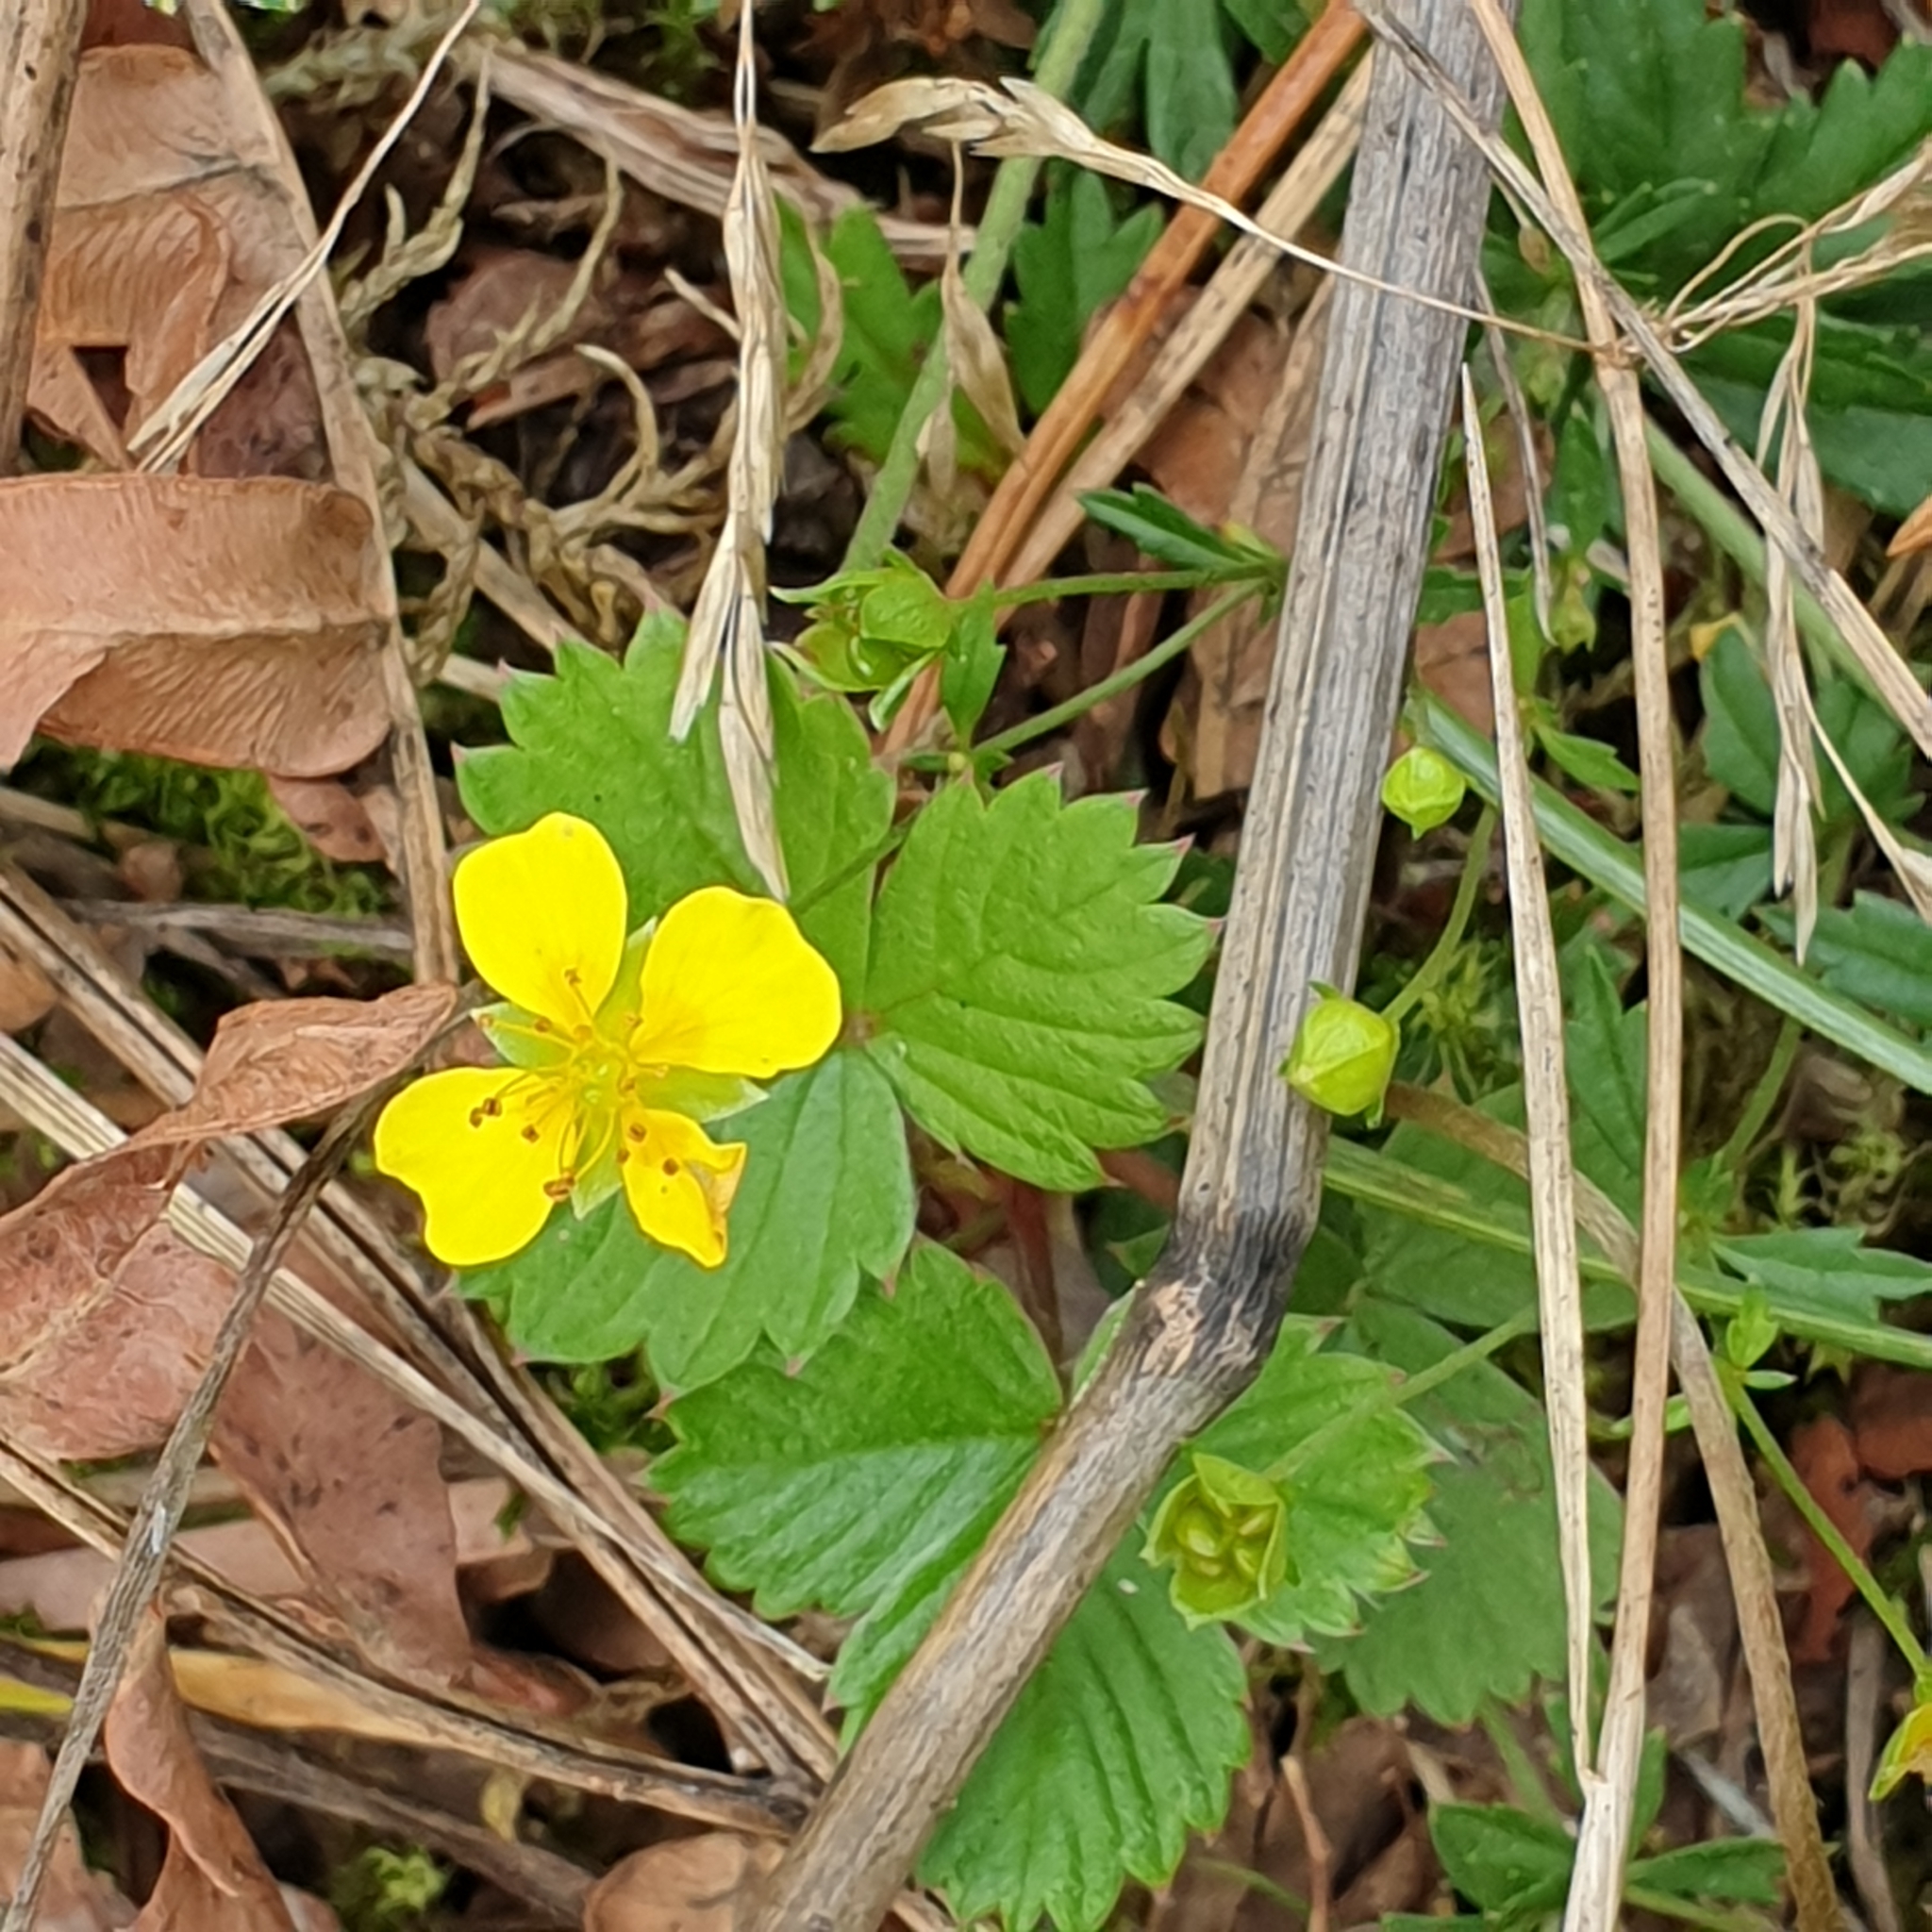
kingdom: Plantae
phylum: Tracheophyta
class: Magnoliopsida
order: Rosales
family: Rosaceae
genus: Potentilla
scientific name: Potentilla erecta
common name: Tormentil
